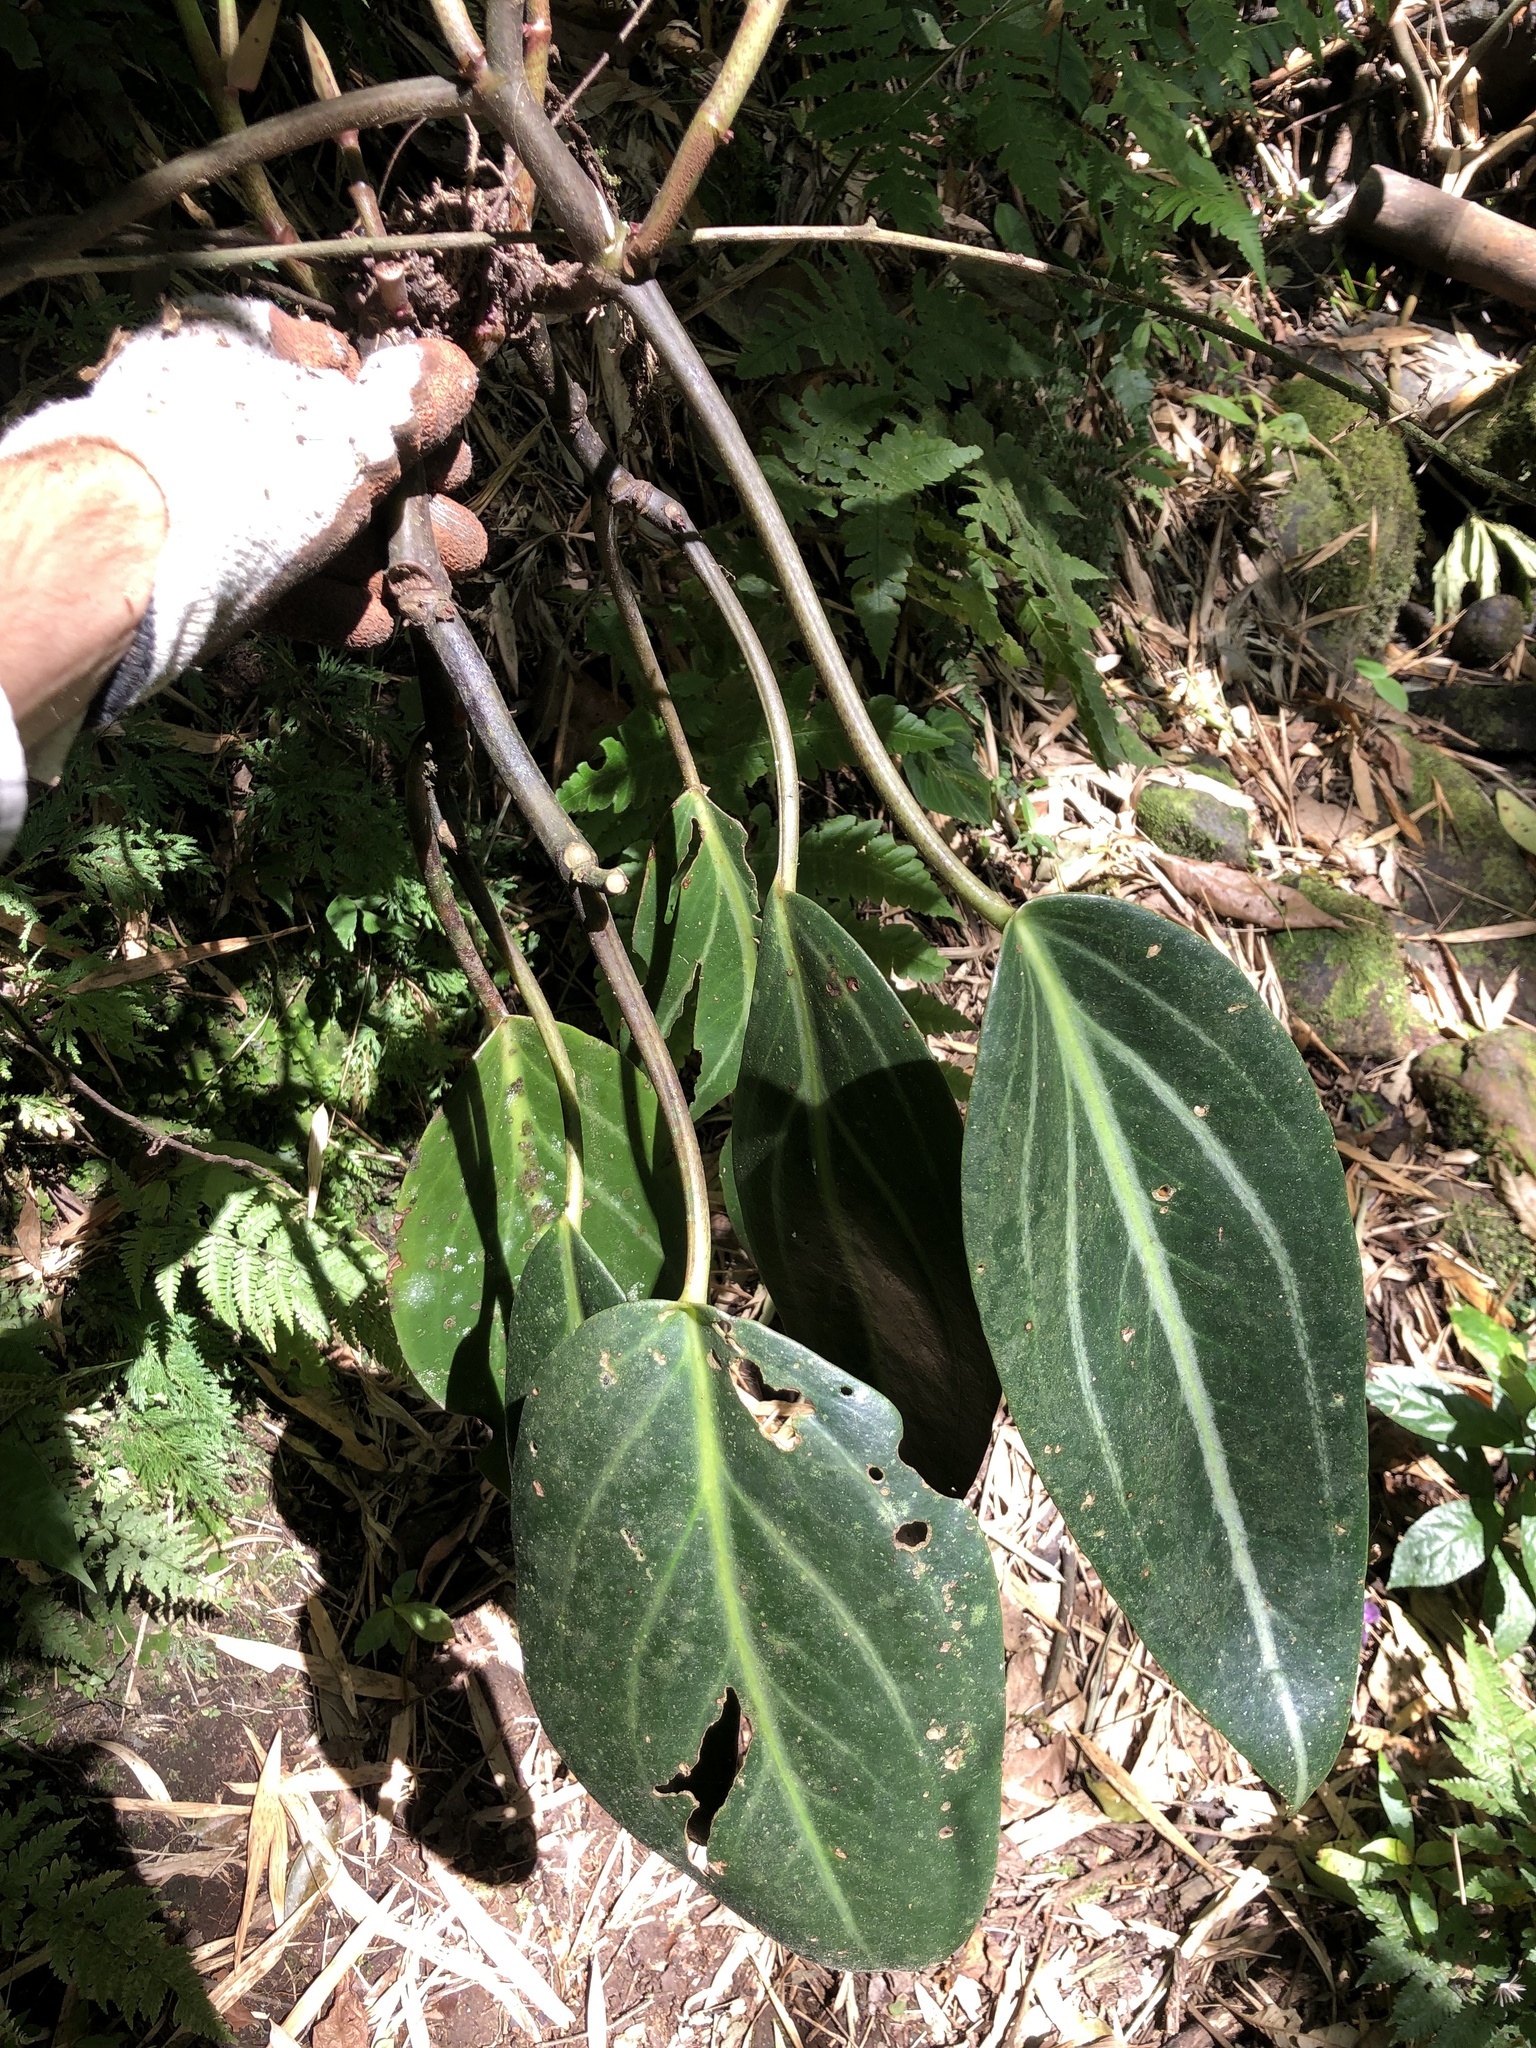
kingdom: Plantae
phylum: Tracheophyta
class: Magnoliopsida
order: Piperales
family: Piperaceae
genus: Peperomia
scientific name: Peperomia maculosa
